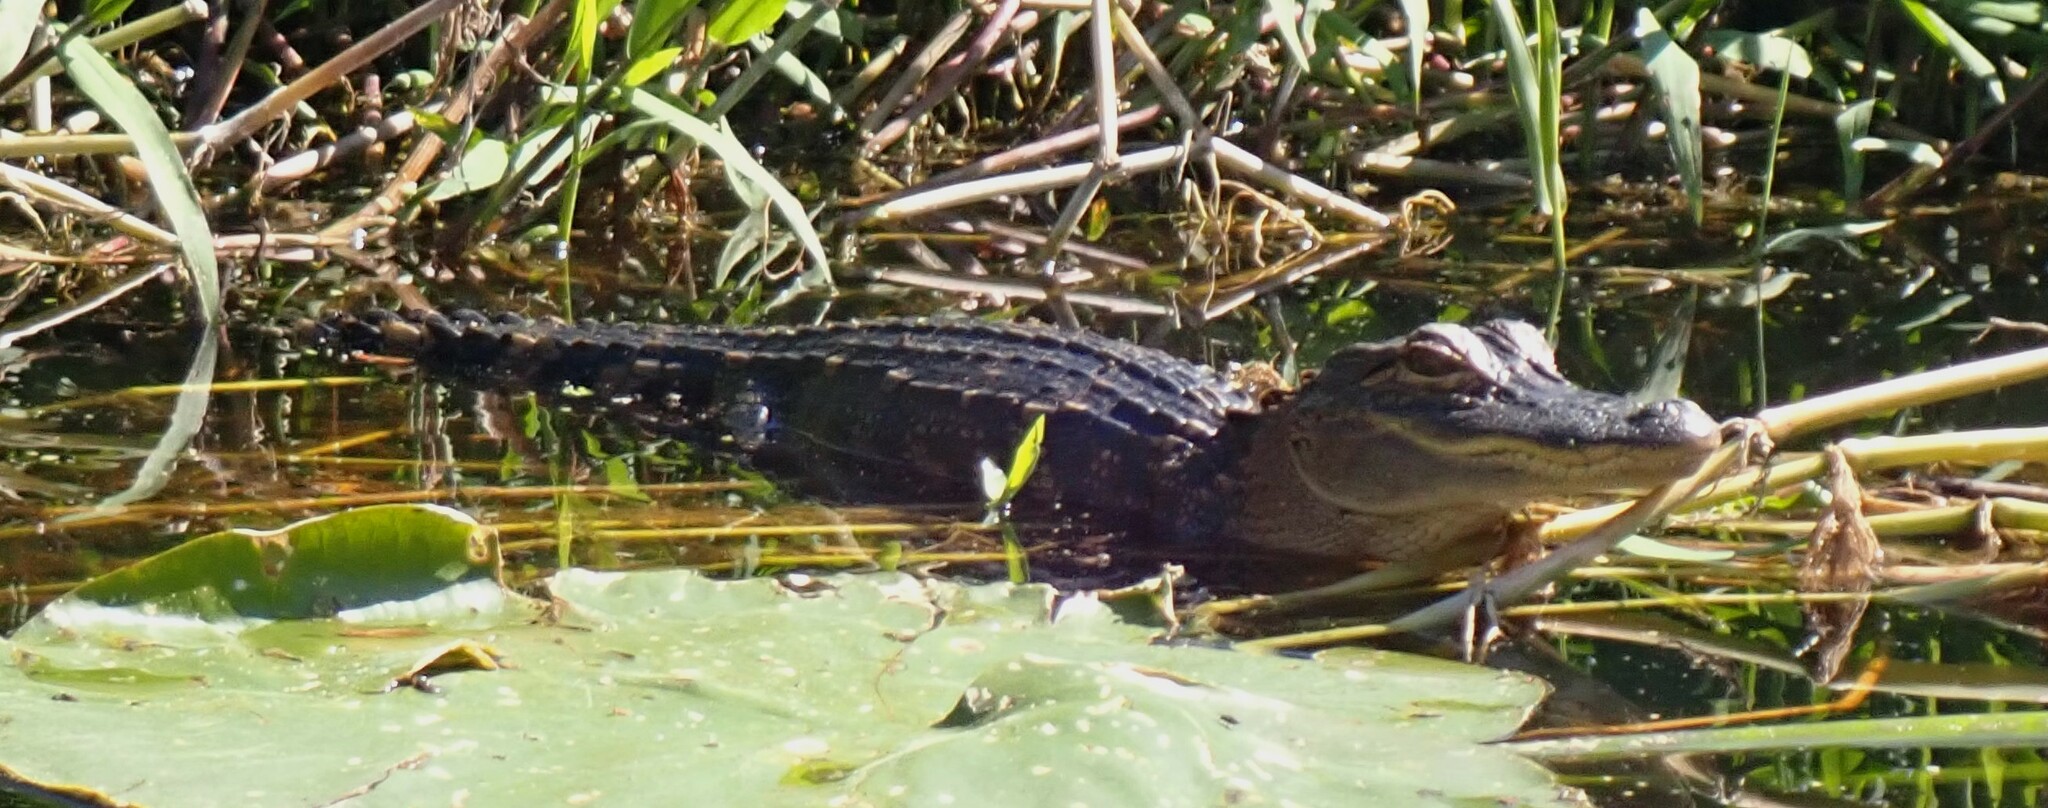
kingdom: Animalia
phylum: Chordata
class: Crocodylia
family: Alligatoridae
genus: Alligator
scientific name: Alligator mississippiensis
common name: American alligator
